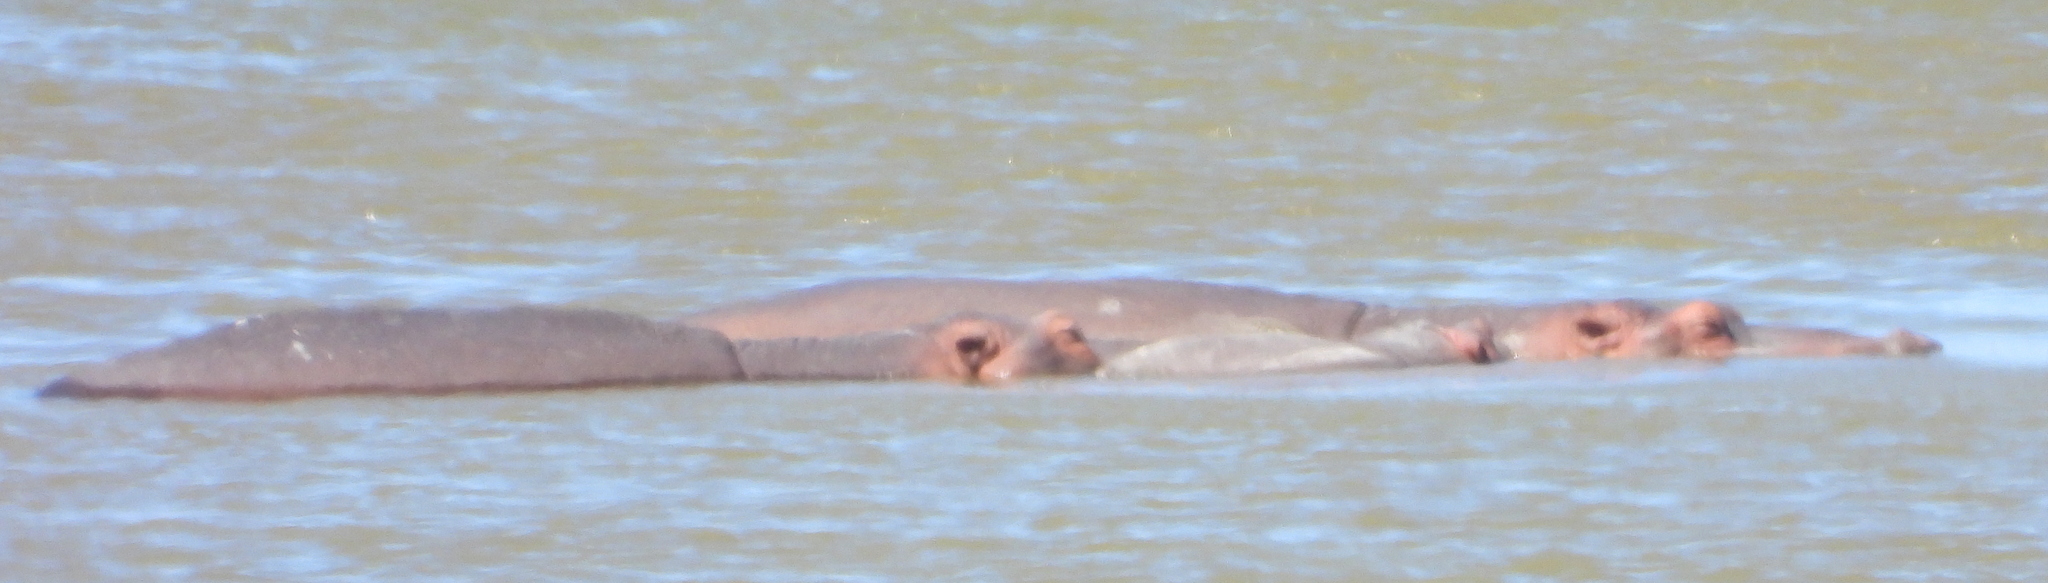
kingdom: Animalia
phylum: Chordata
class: Mammalia
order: Artiodactyla
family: Hippopotamidae
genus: Hippopotamus
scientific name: Hippopotamus amphibius
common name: Common hippopotamus
